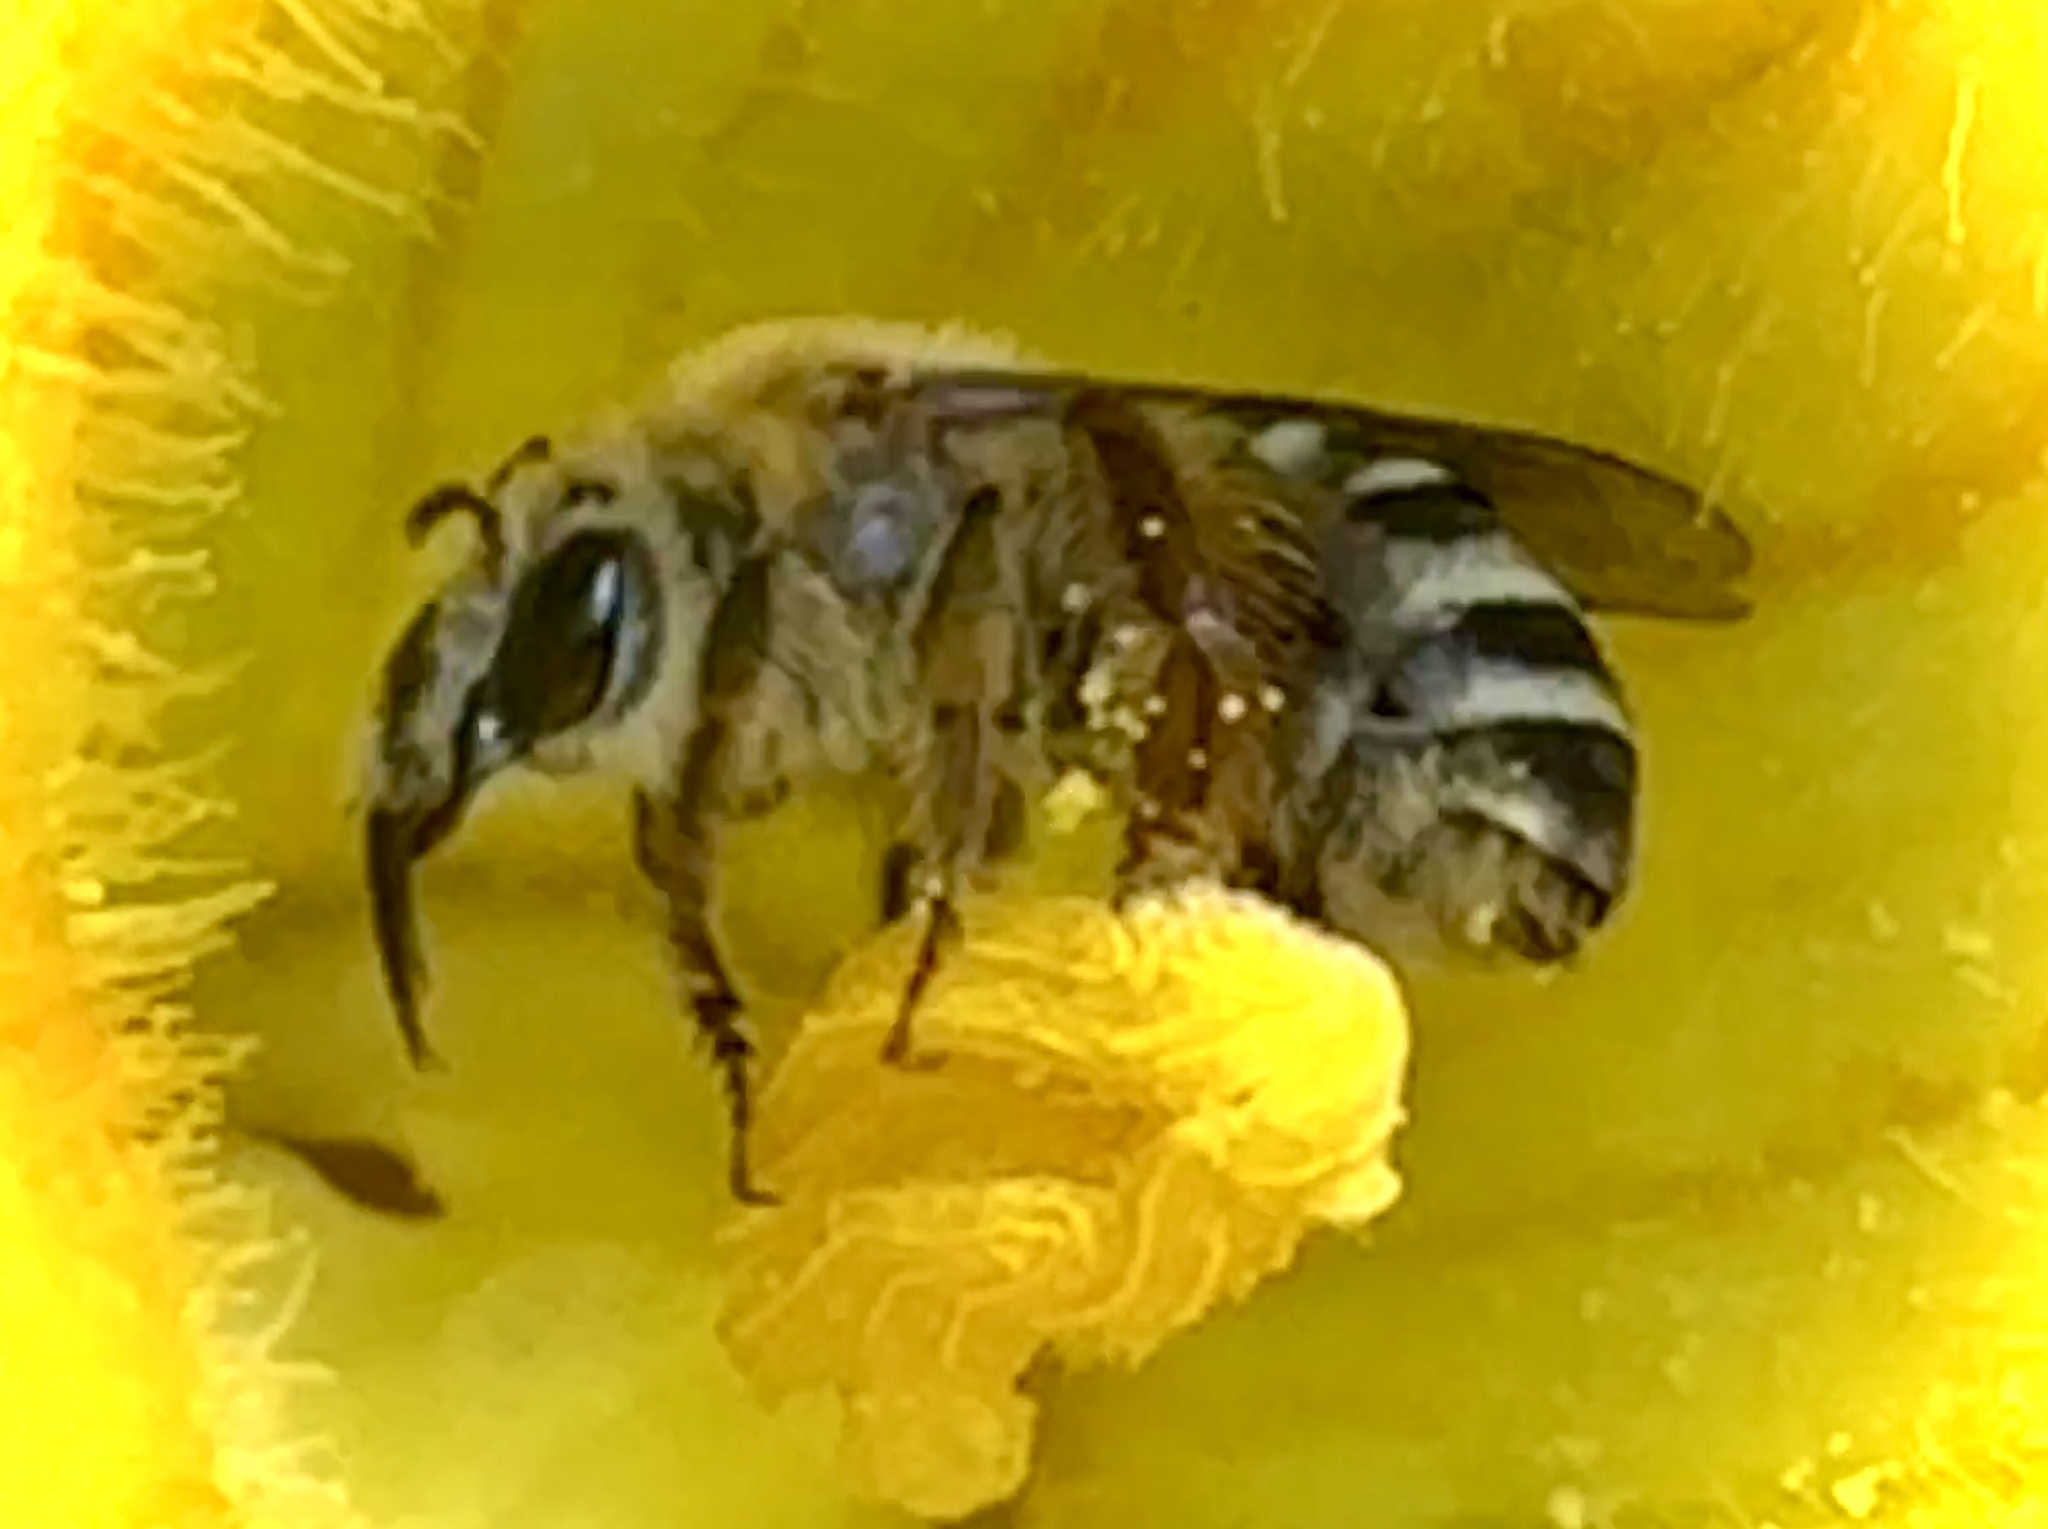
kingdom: Animalia
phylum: Arthropoda
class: Insecta
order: Hymenoptera
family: Apidae
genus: Peponapis
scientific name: Peponapis pruinosa
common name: Pruinose squash bee
